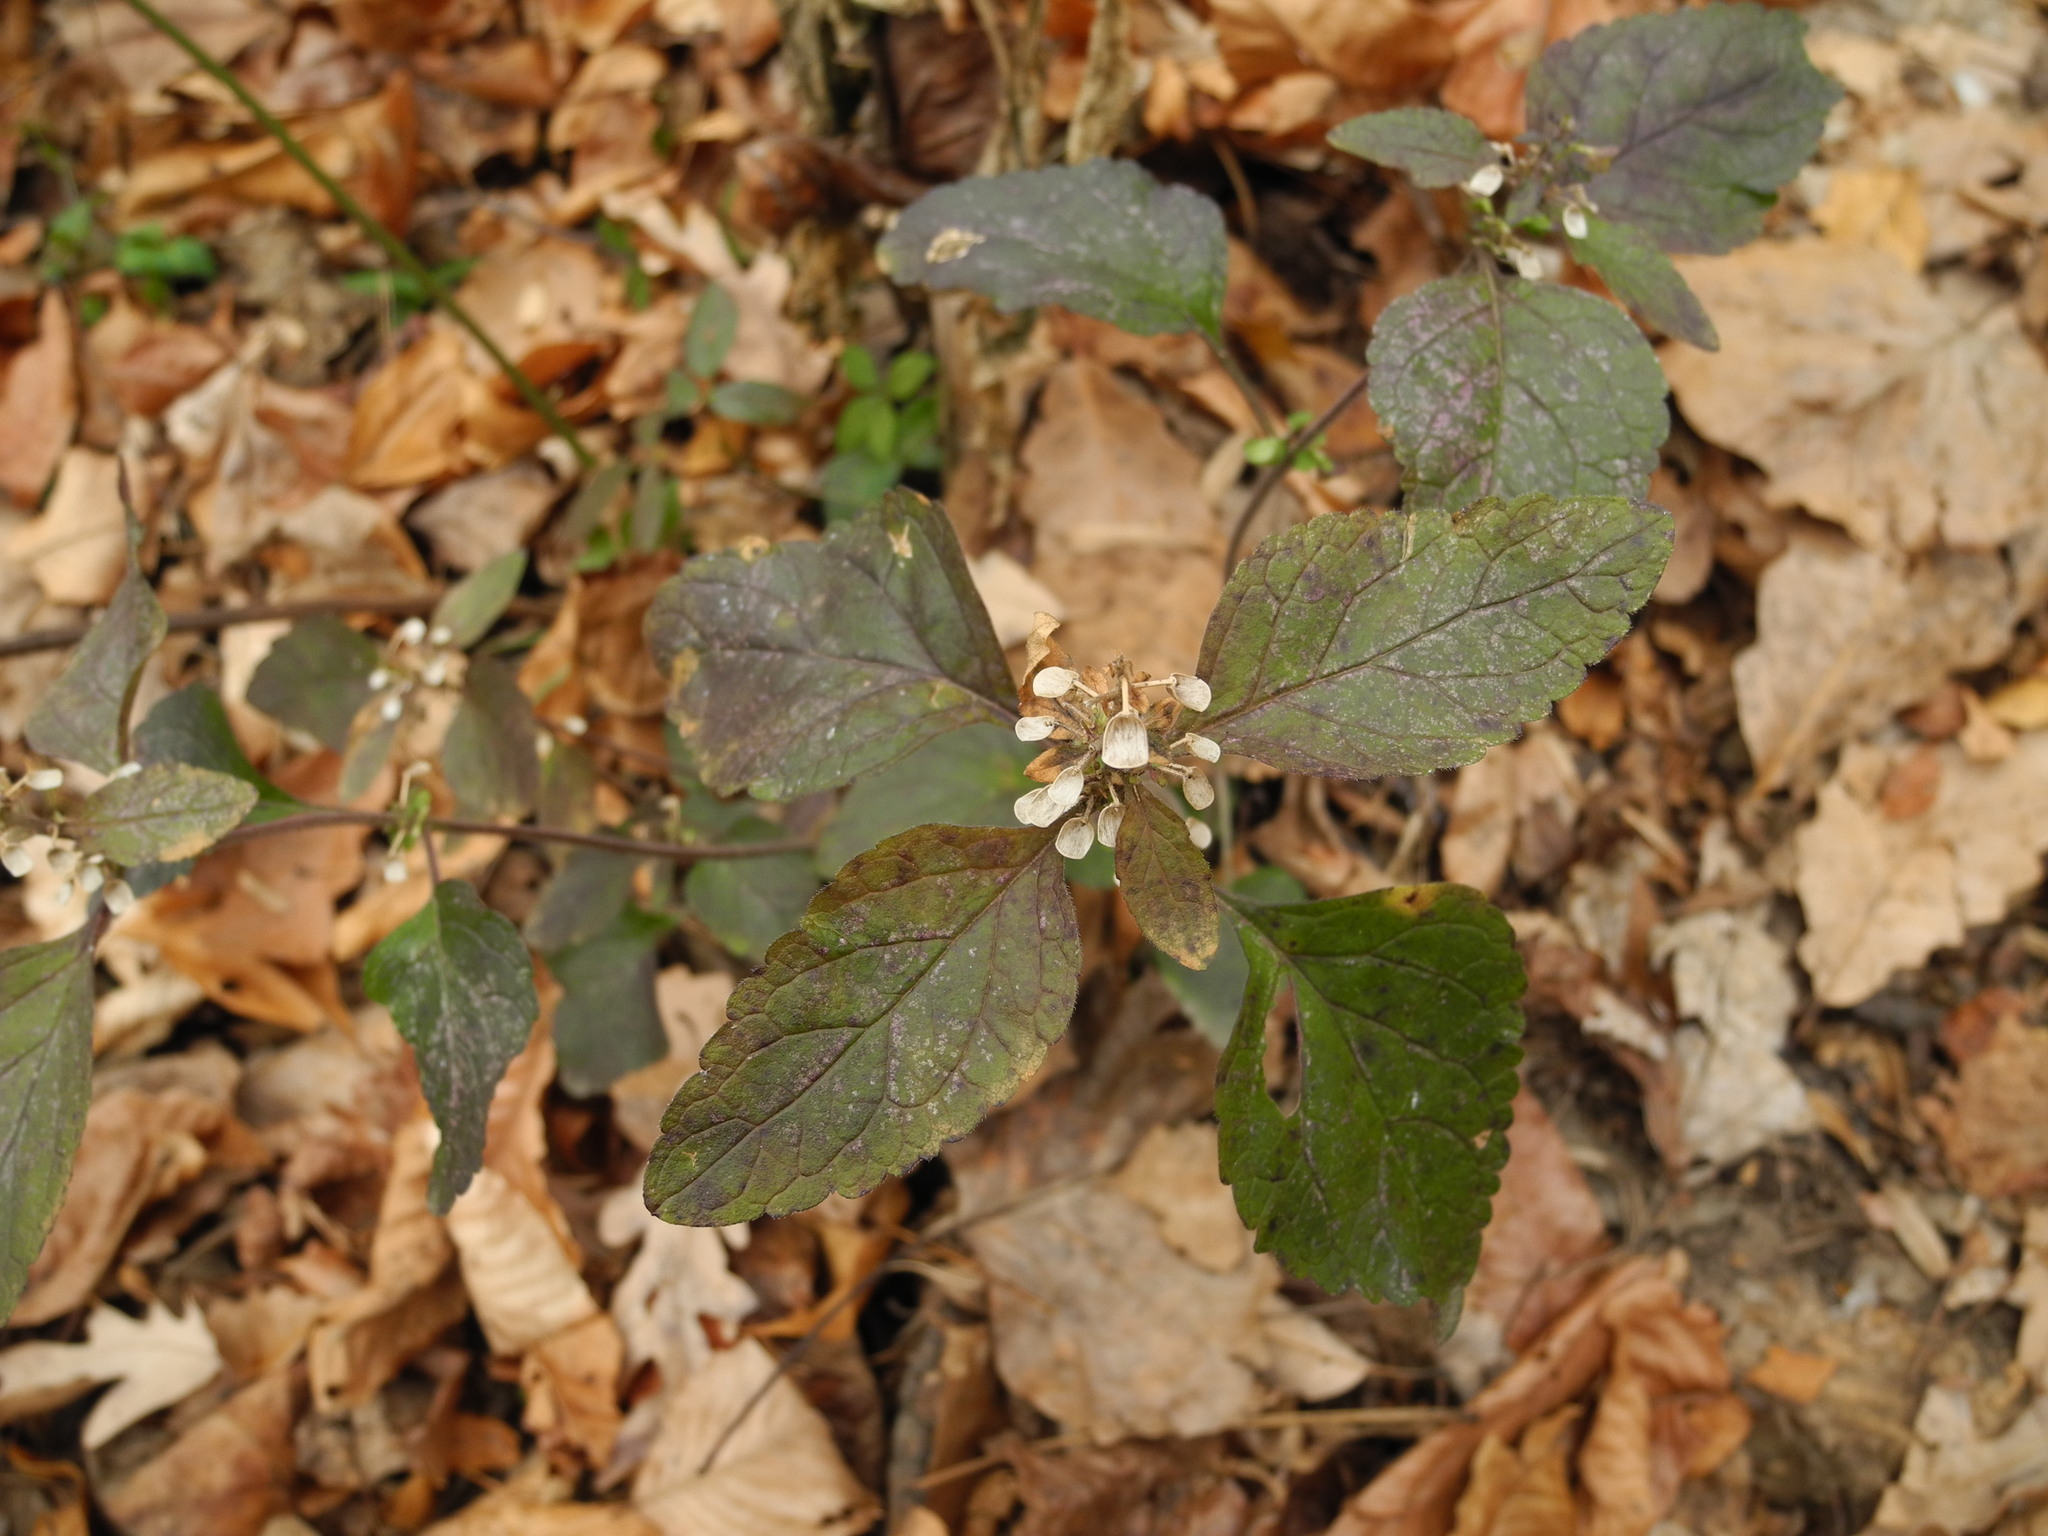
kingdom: Plantae
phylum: Tracheophyta
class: Magnoliopsida
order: Lamiales
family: Lamiaceae
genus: Scutellaria
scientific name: Scutellaria elliptica
